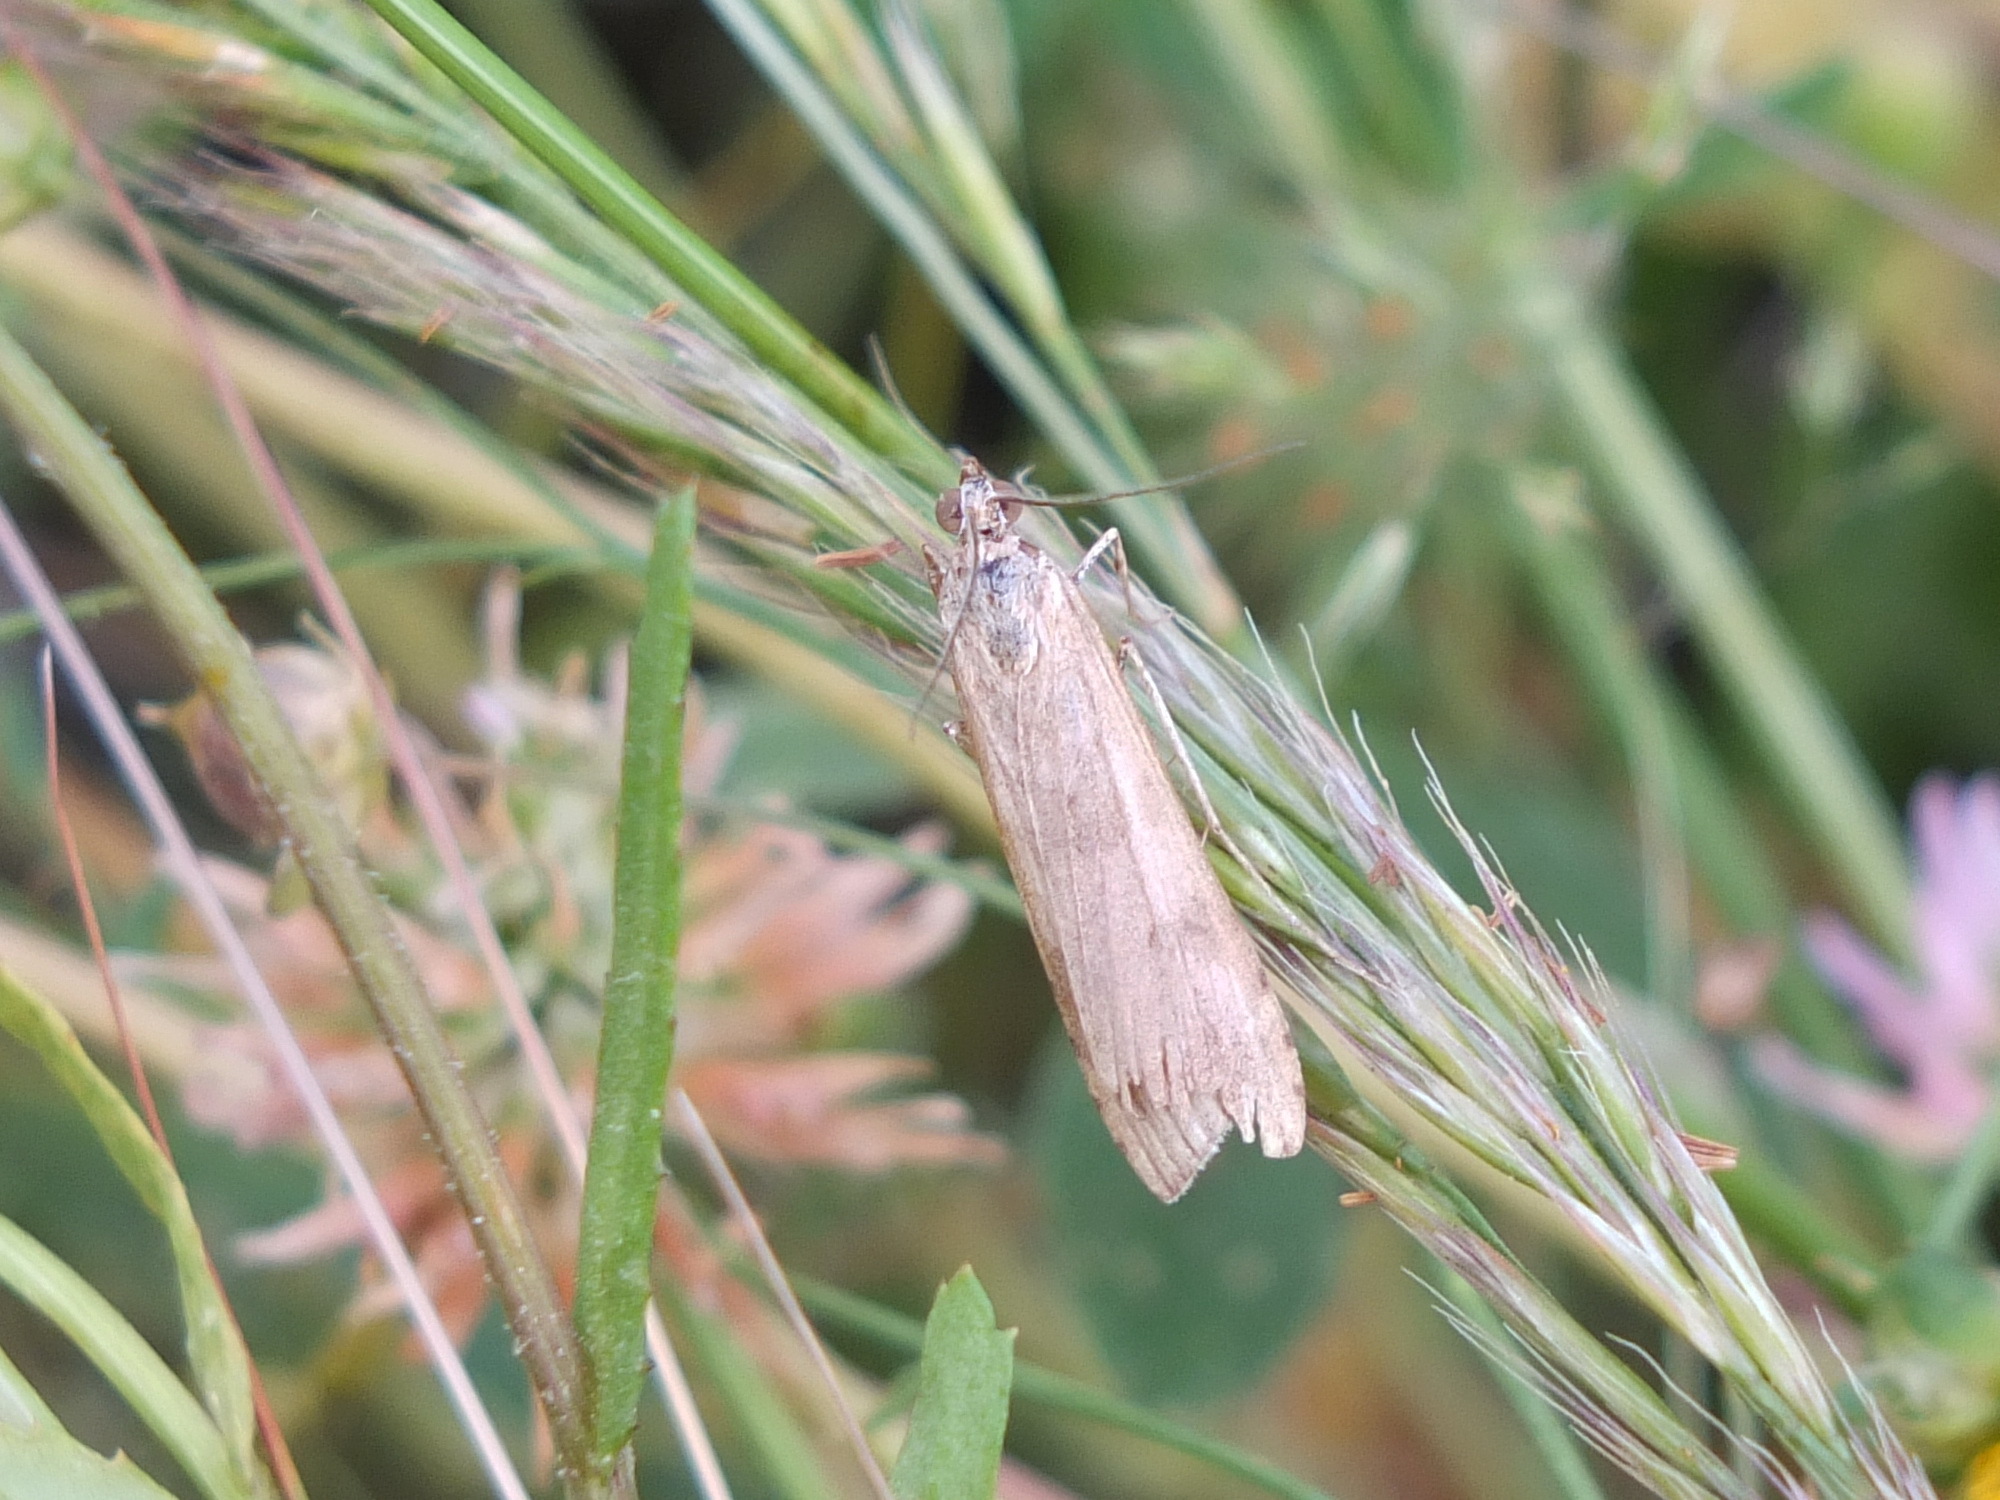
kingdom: Animalia
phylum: Arthropoda
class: Insecta
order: Lepidoptera
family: Crambidae
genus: Nomophila
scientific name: Nomophila noctuella
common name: Rush veneer
